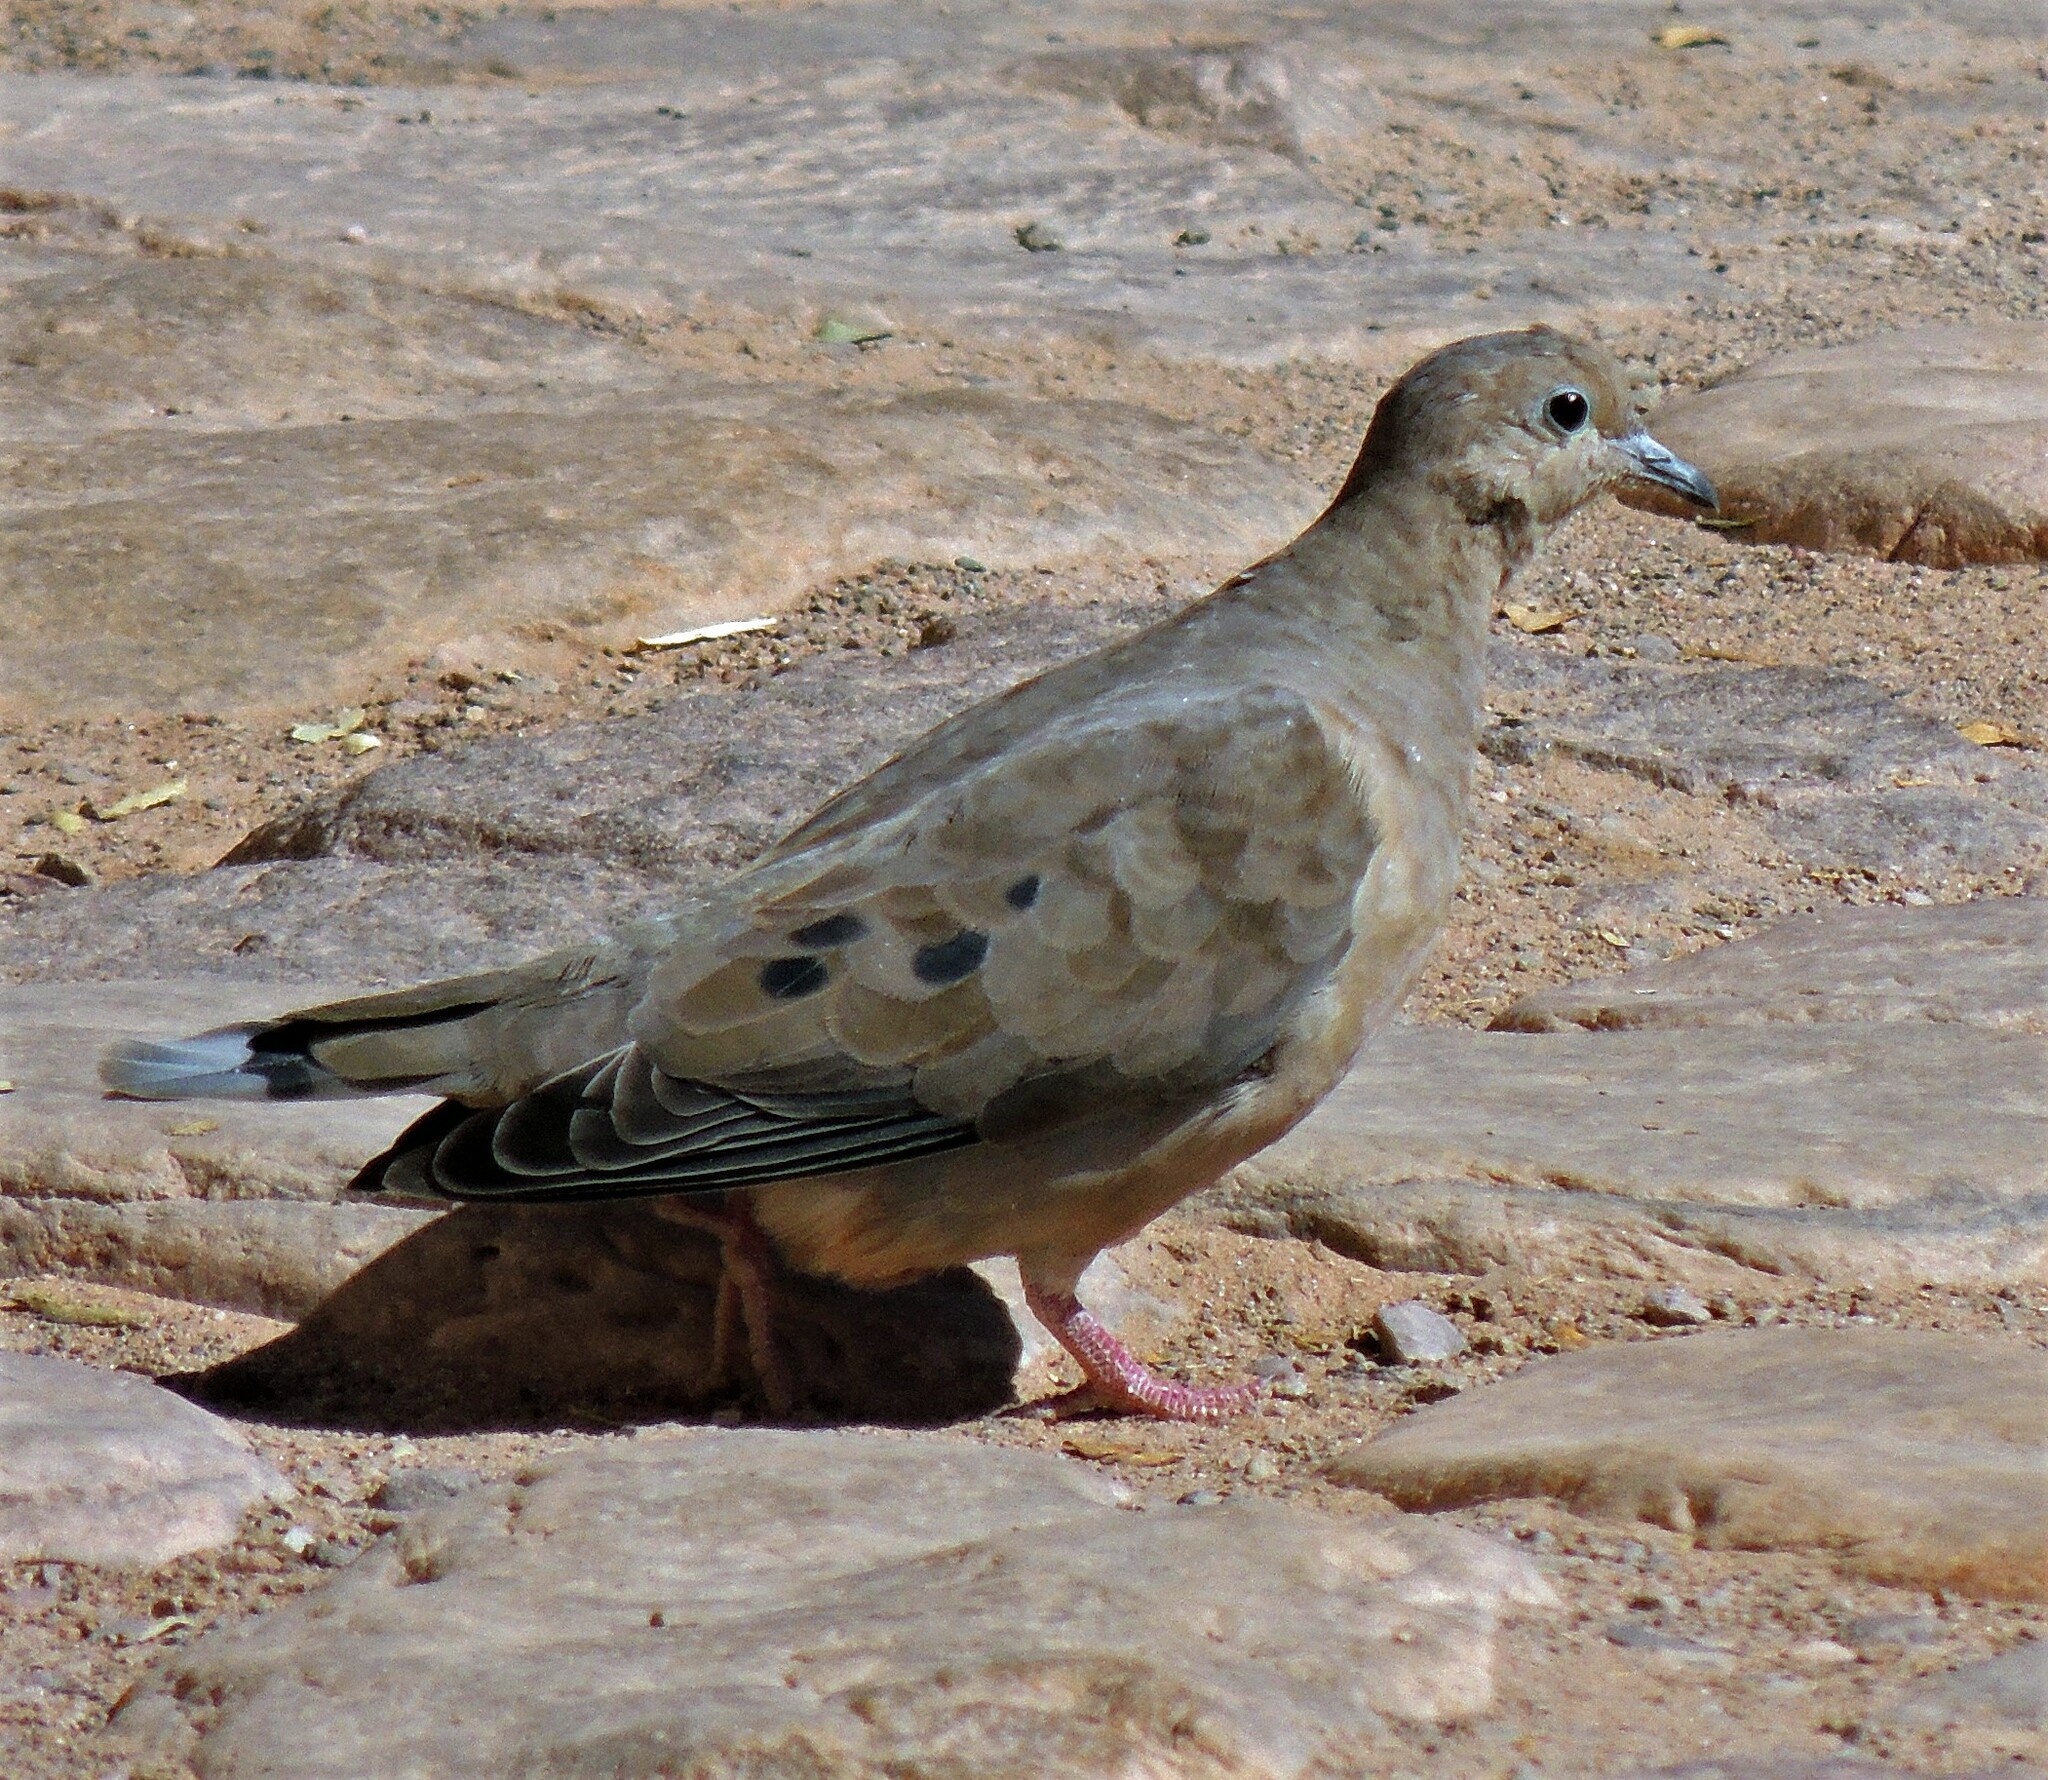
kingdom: Animalia
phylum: Chordata
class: Aves
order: Columbiformes
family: Columbidae
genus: Zenaida
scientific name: Zenaida auriculata
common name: Eared dove
